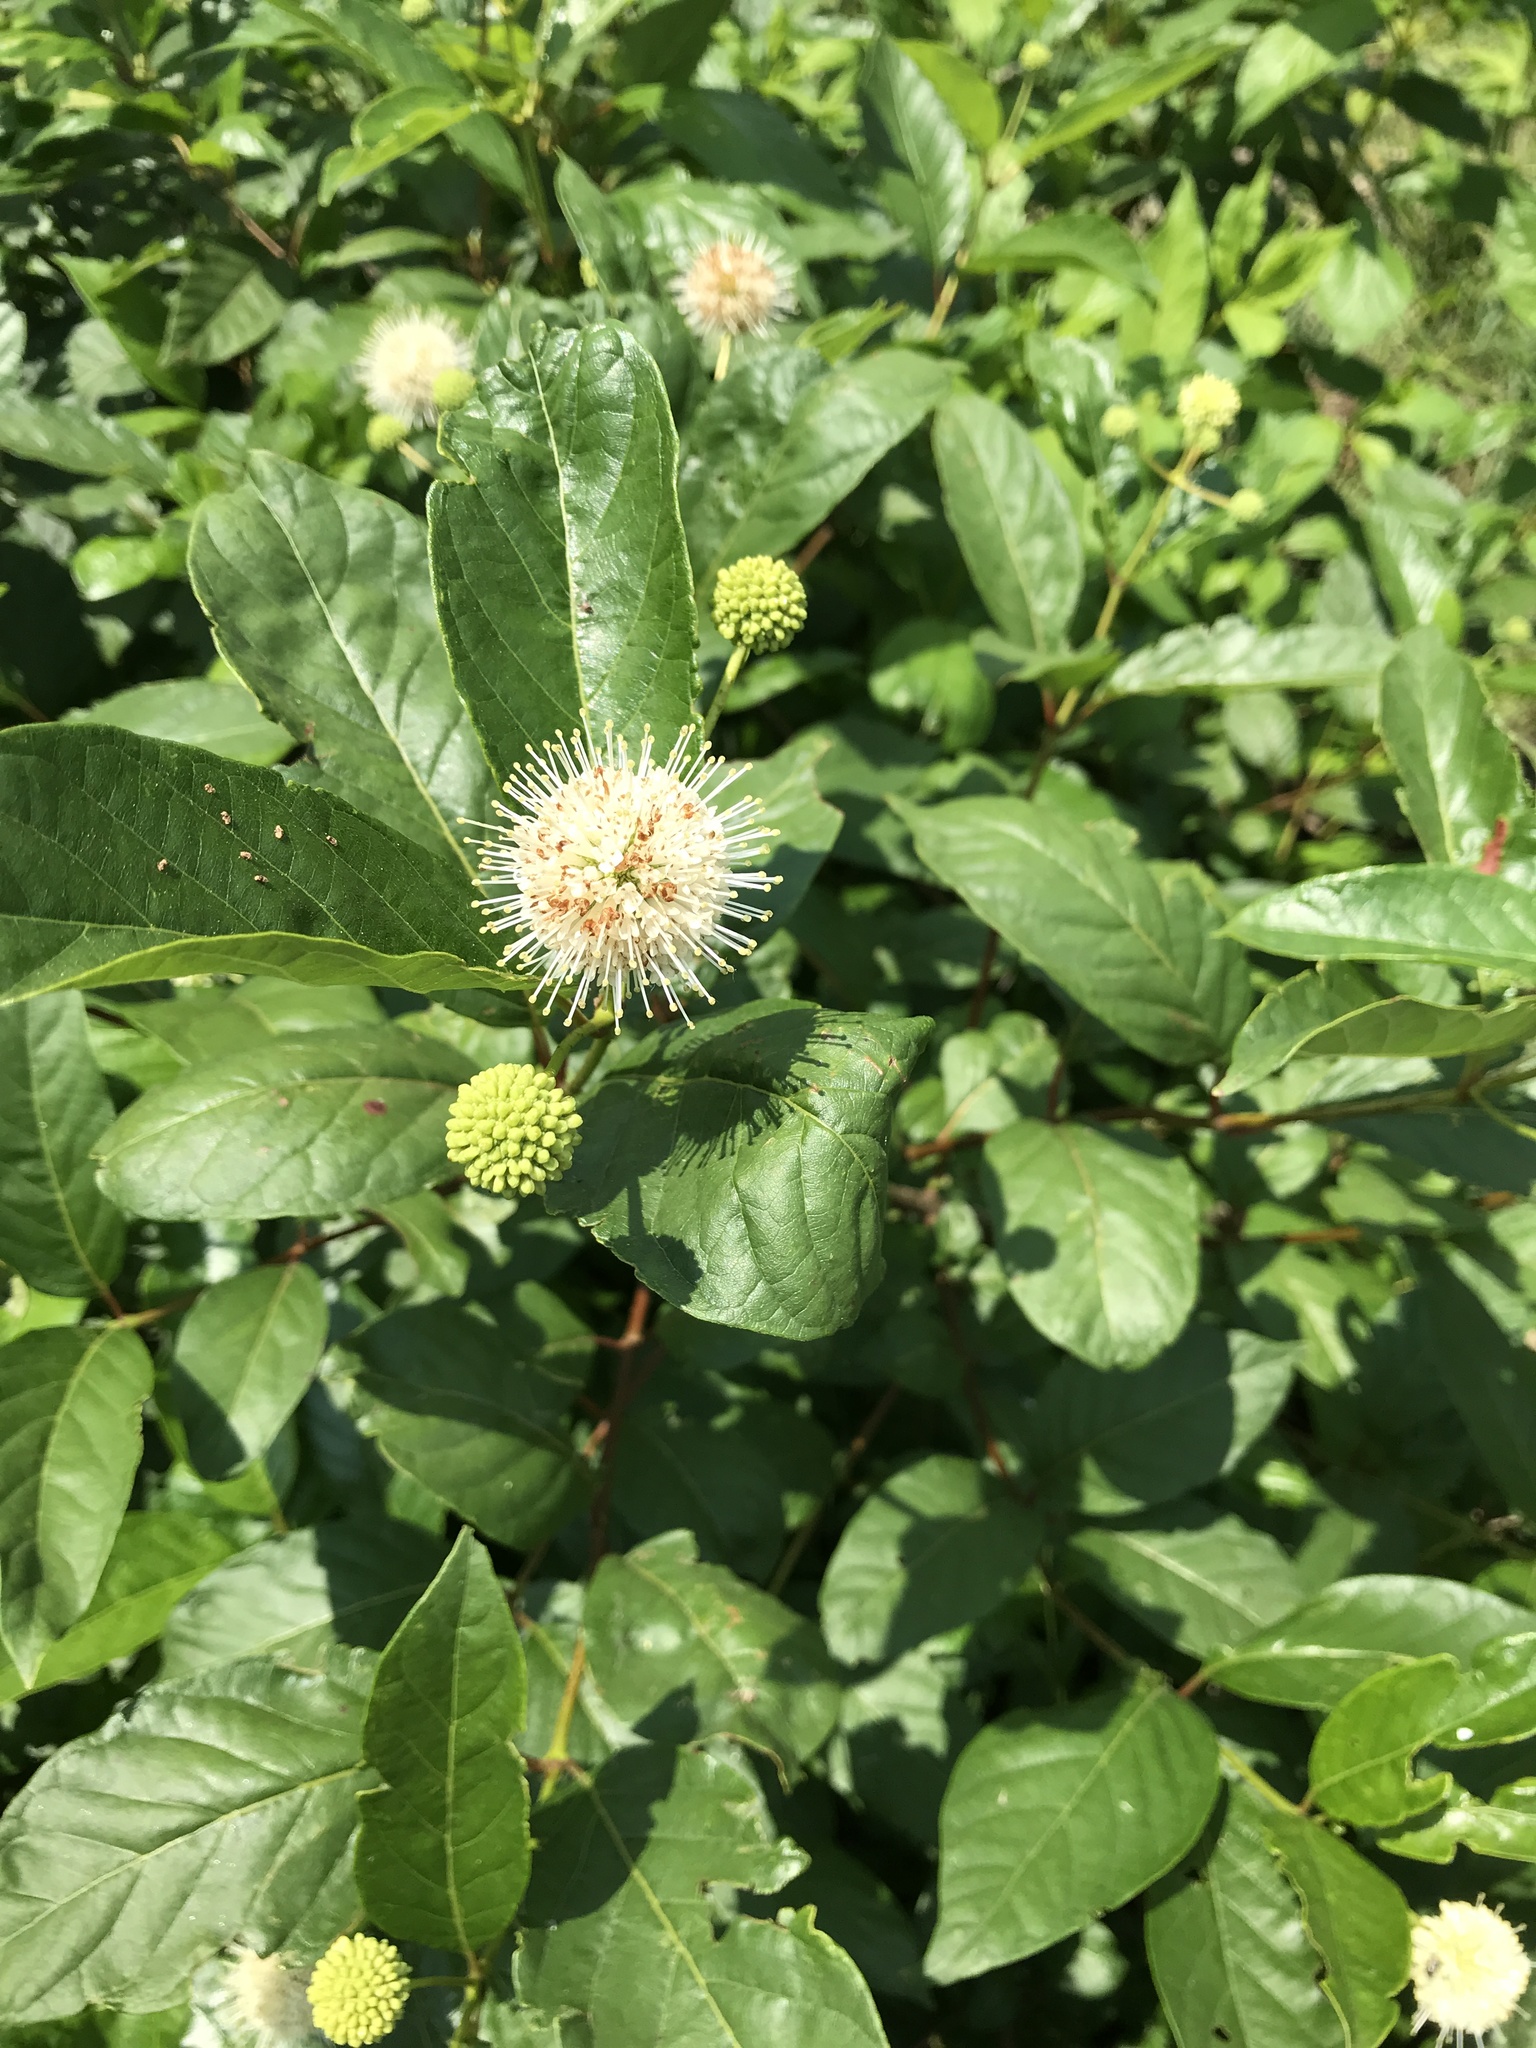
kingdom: Plantae
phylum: Tracheophyta
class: Magnoliopsida
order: Gentianales
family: Rubiaceae
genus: Cephalanthus
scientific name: Cephalanthus occidentalis
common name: Button-willow
